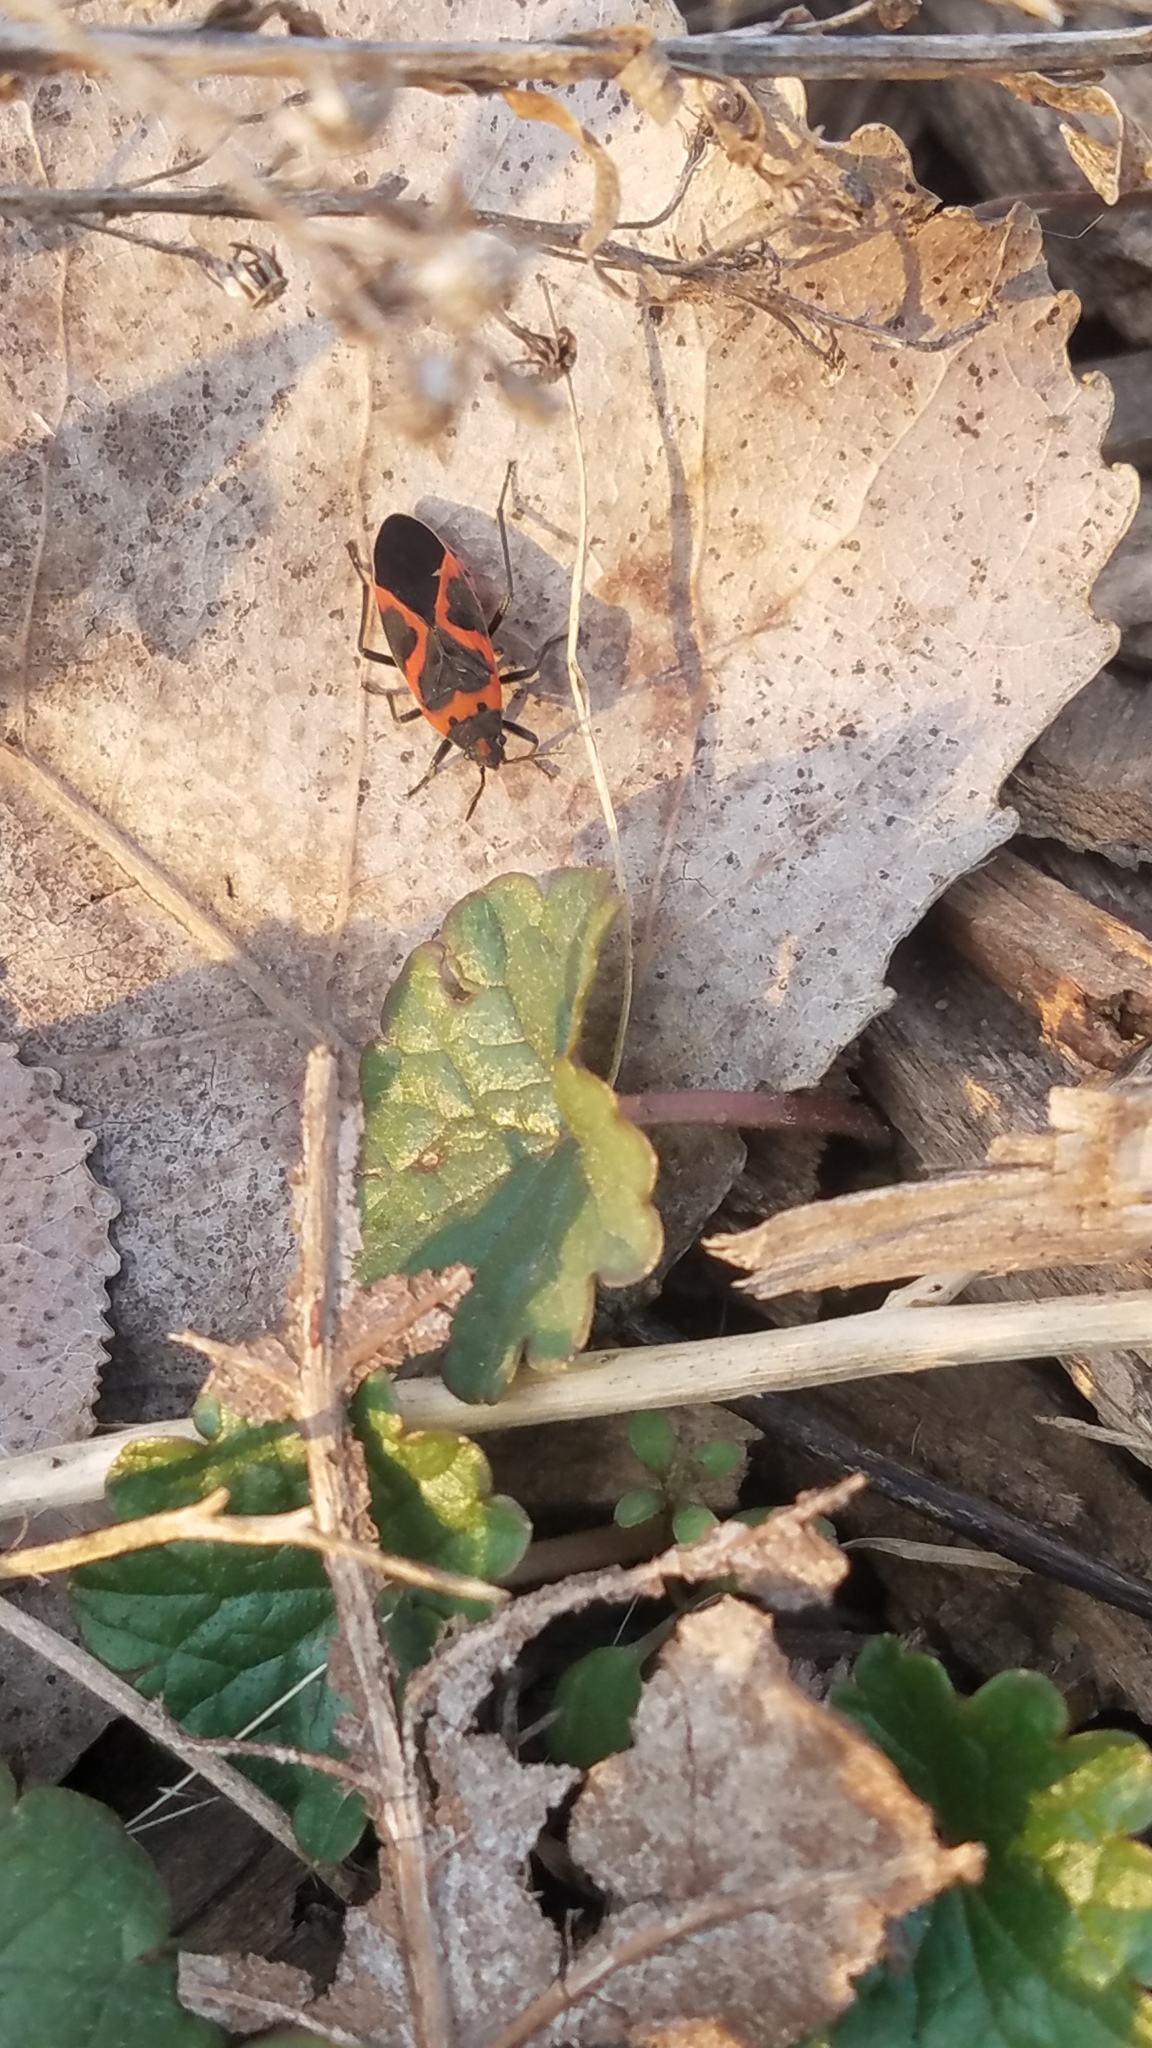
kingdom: Animalia
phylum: Arthropoda
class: Insecta
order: Hemiptera
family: Lygaeidae
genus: Lygaeus
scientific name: Lygaeus kalmii
